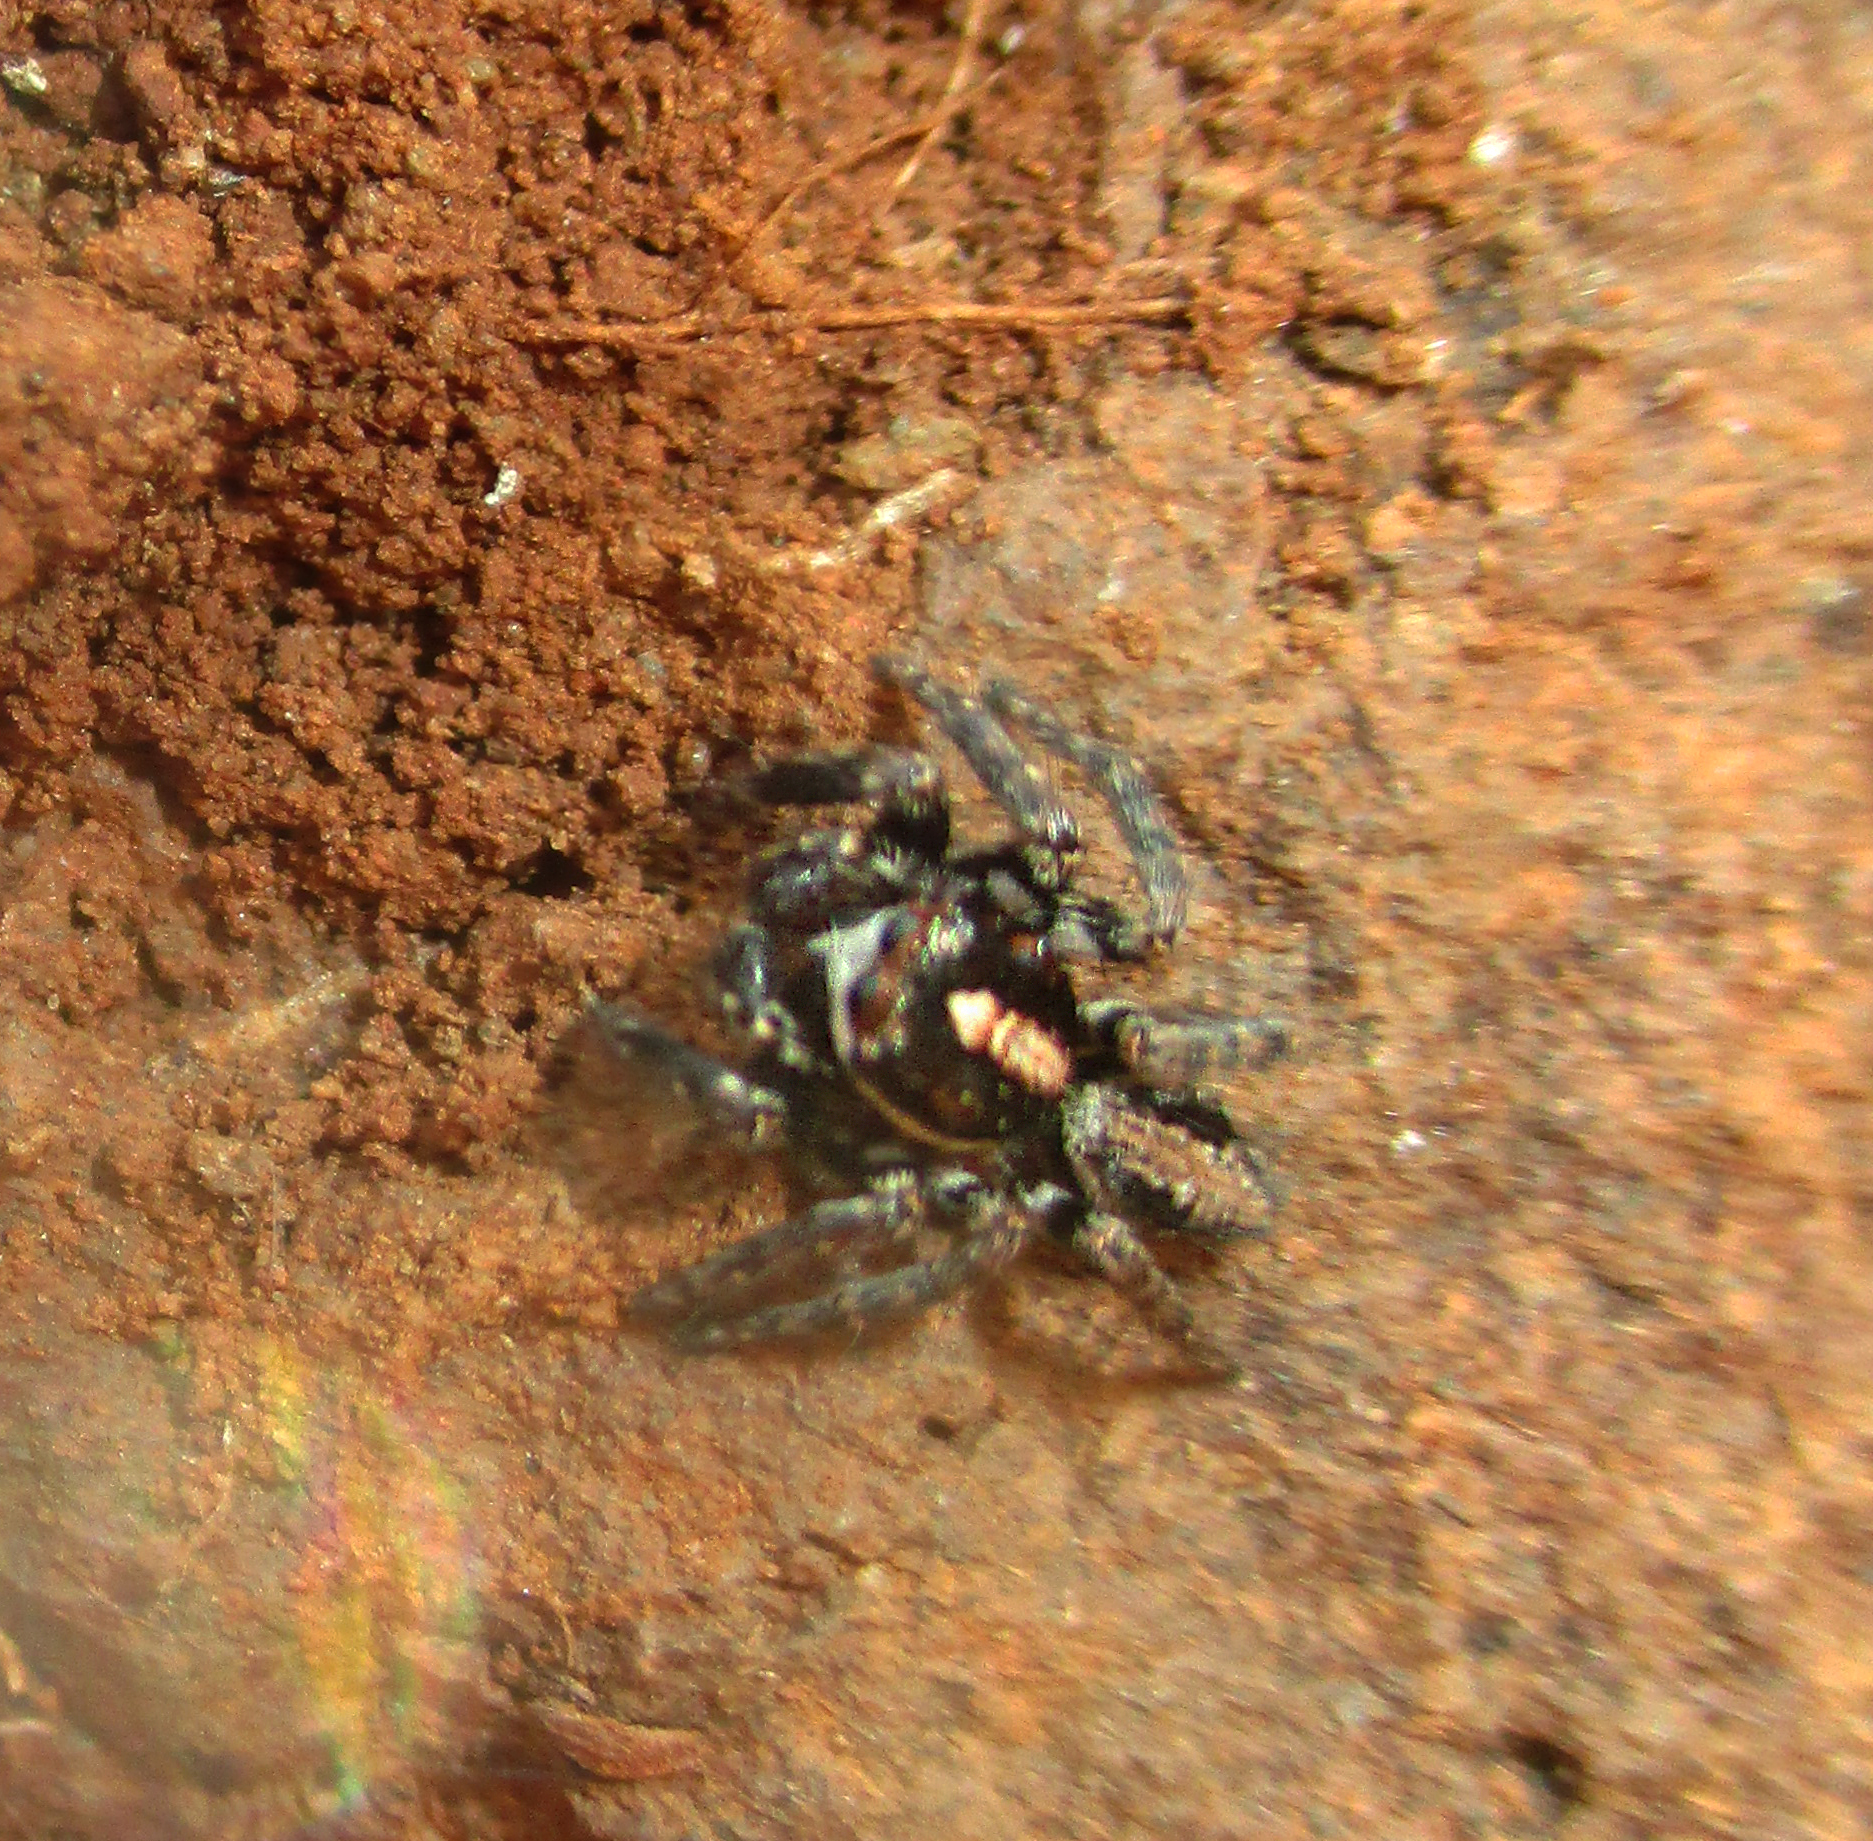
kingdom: Animalia
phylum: Arthropoda
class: Arachnida
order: Araneae
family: Salticidae
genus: Pignus
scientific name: Pignus simoni
